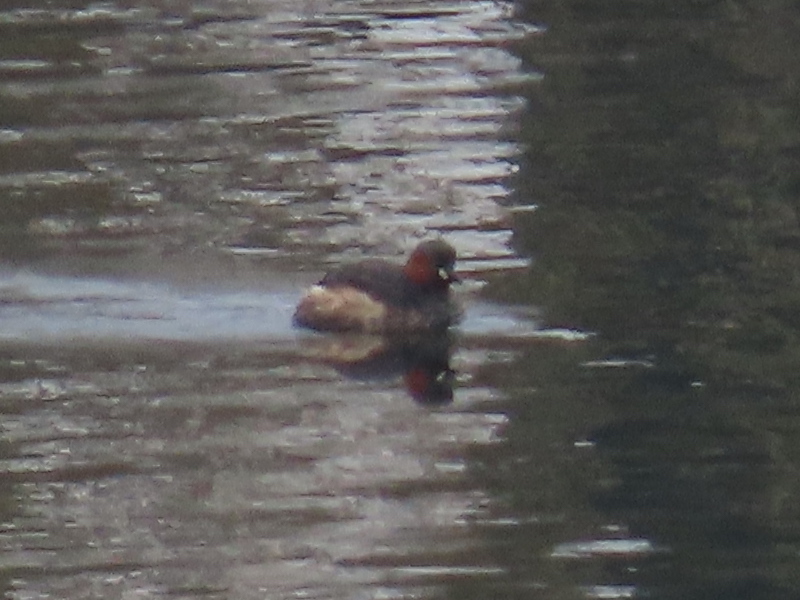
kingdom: Animalia
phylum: Chordata
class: Aves
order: Podicipediformes
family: Podicipedidae
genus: Tachybaptus
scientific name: Tachybaptus ruficollis
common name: Little grebe
